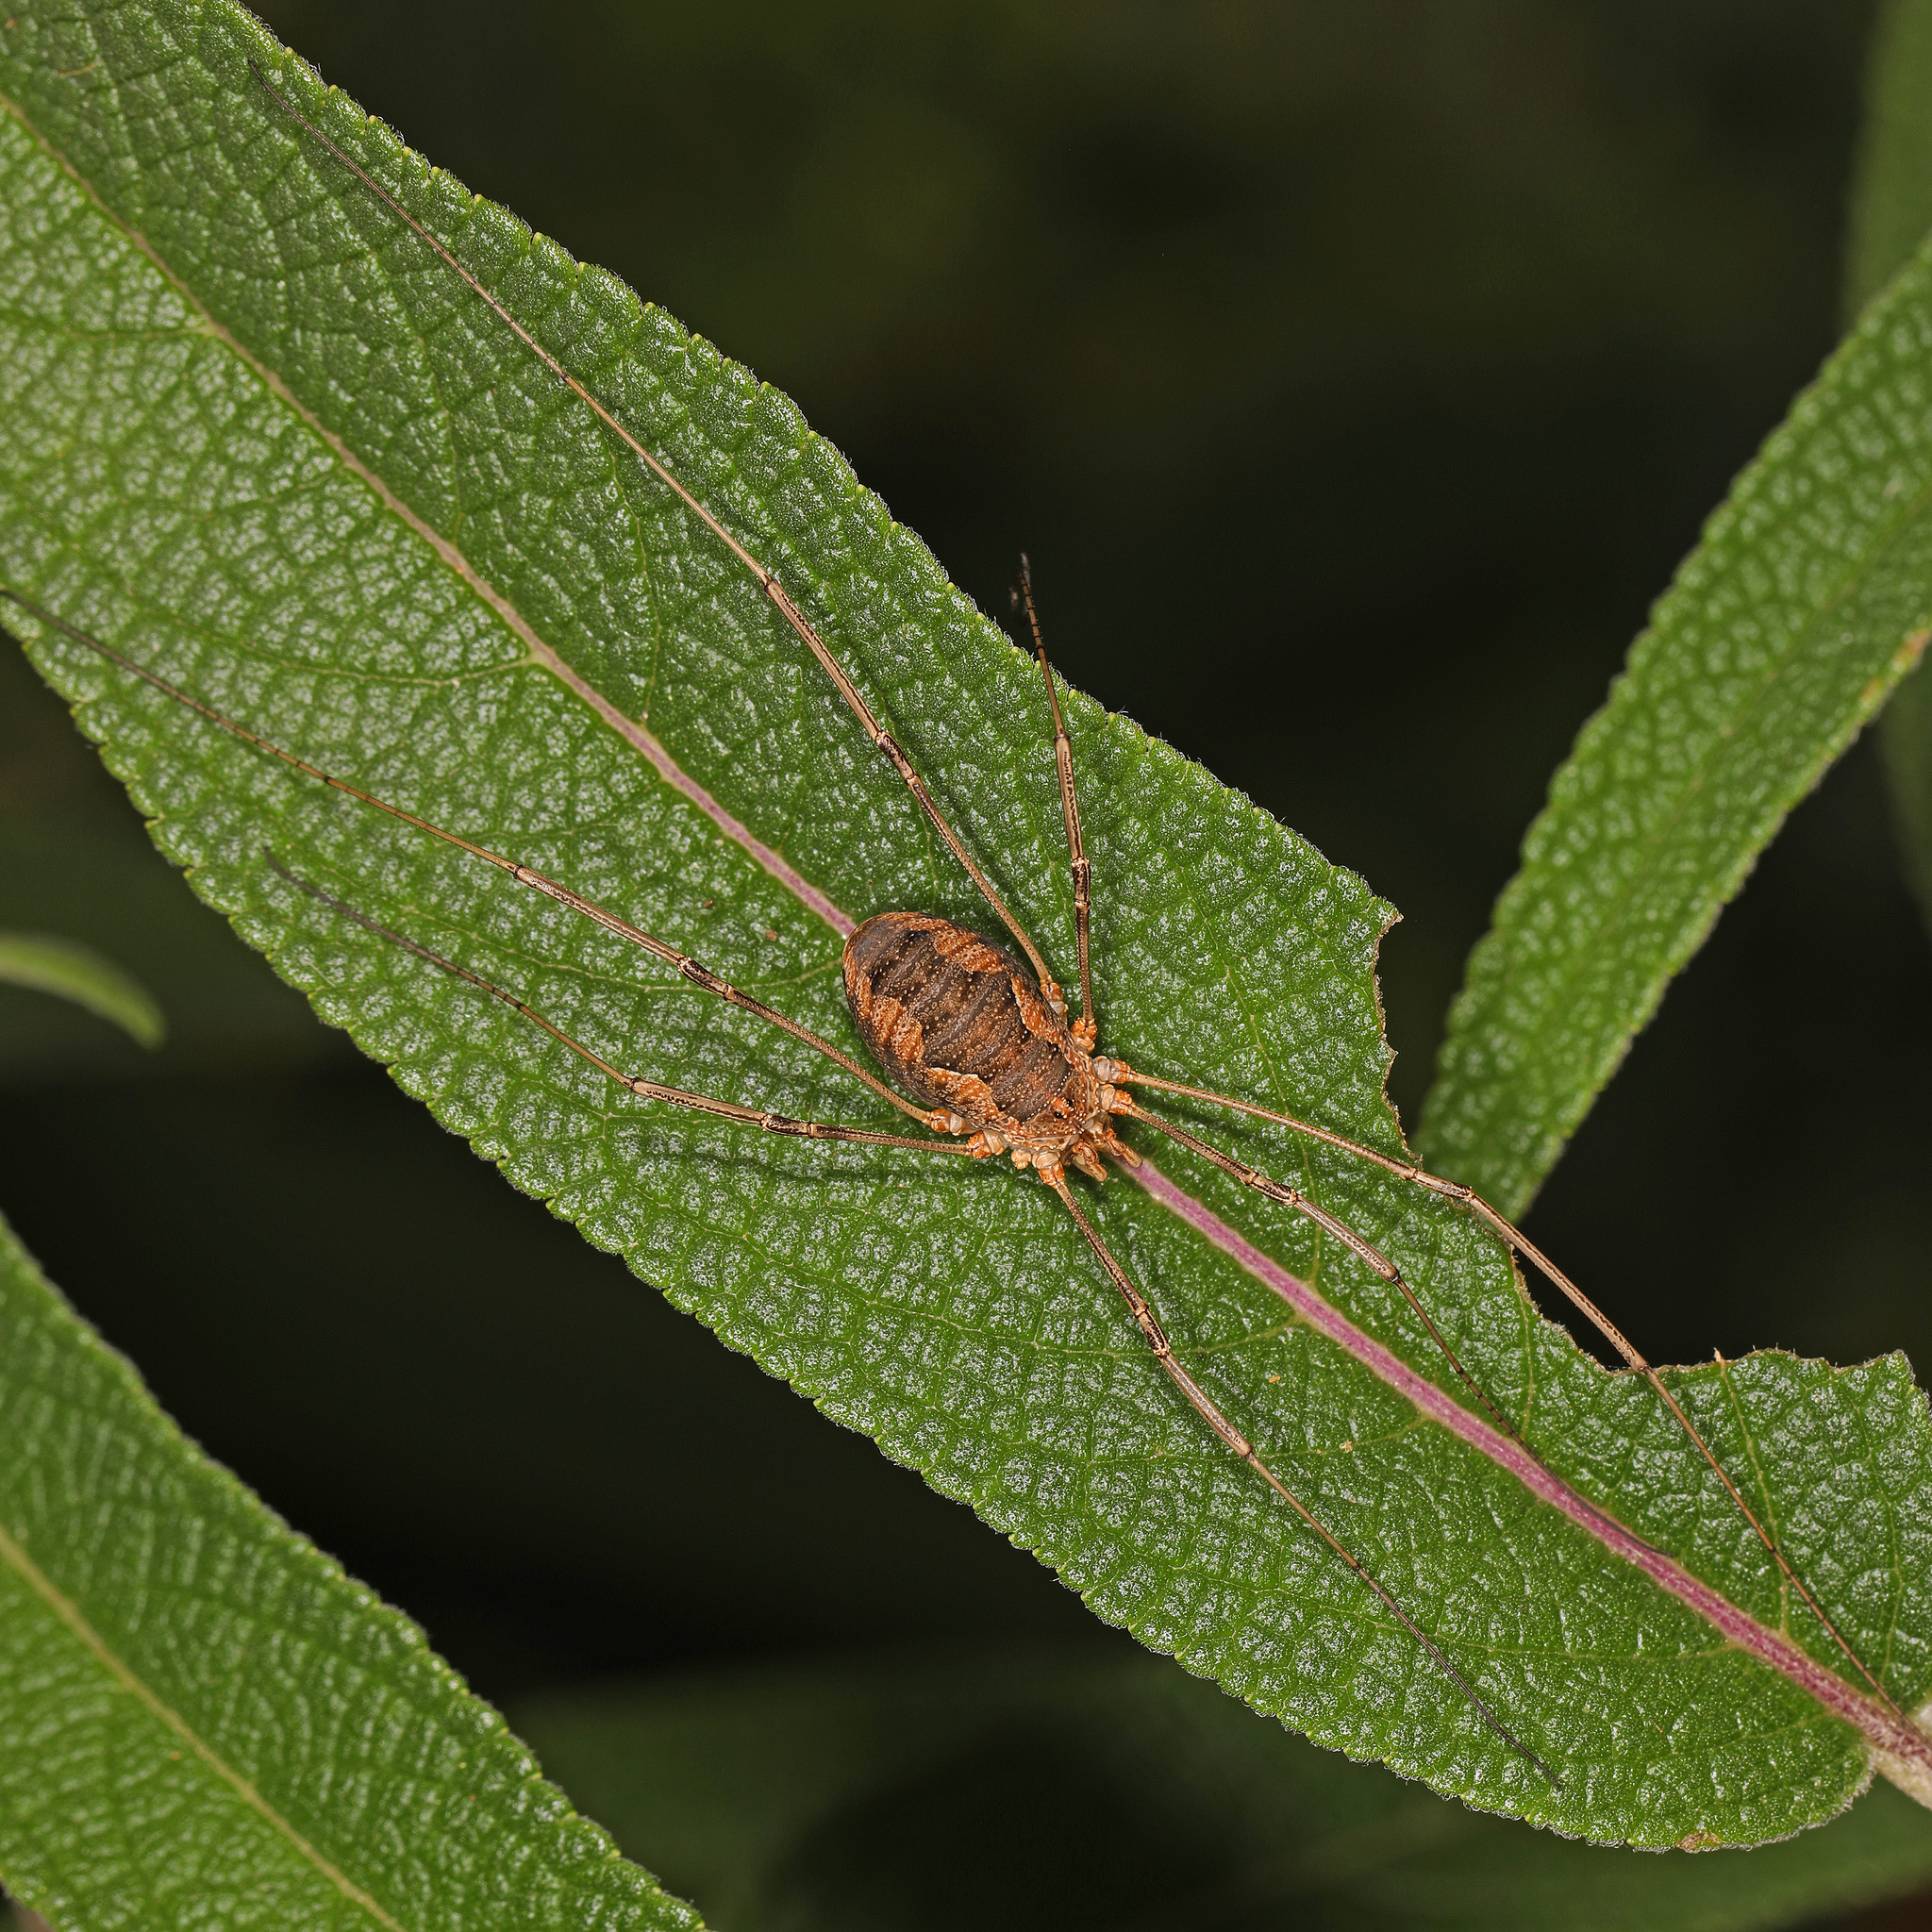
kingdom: Animalia
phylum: Arthropoda
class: Arachnida
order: Opiliones
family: Phalangiidae
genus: Phalangium
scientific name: Phalangium opilio
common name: Daddy longleg
